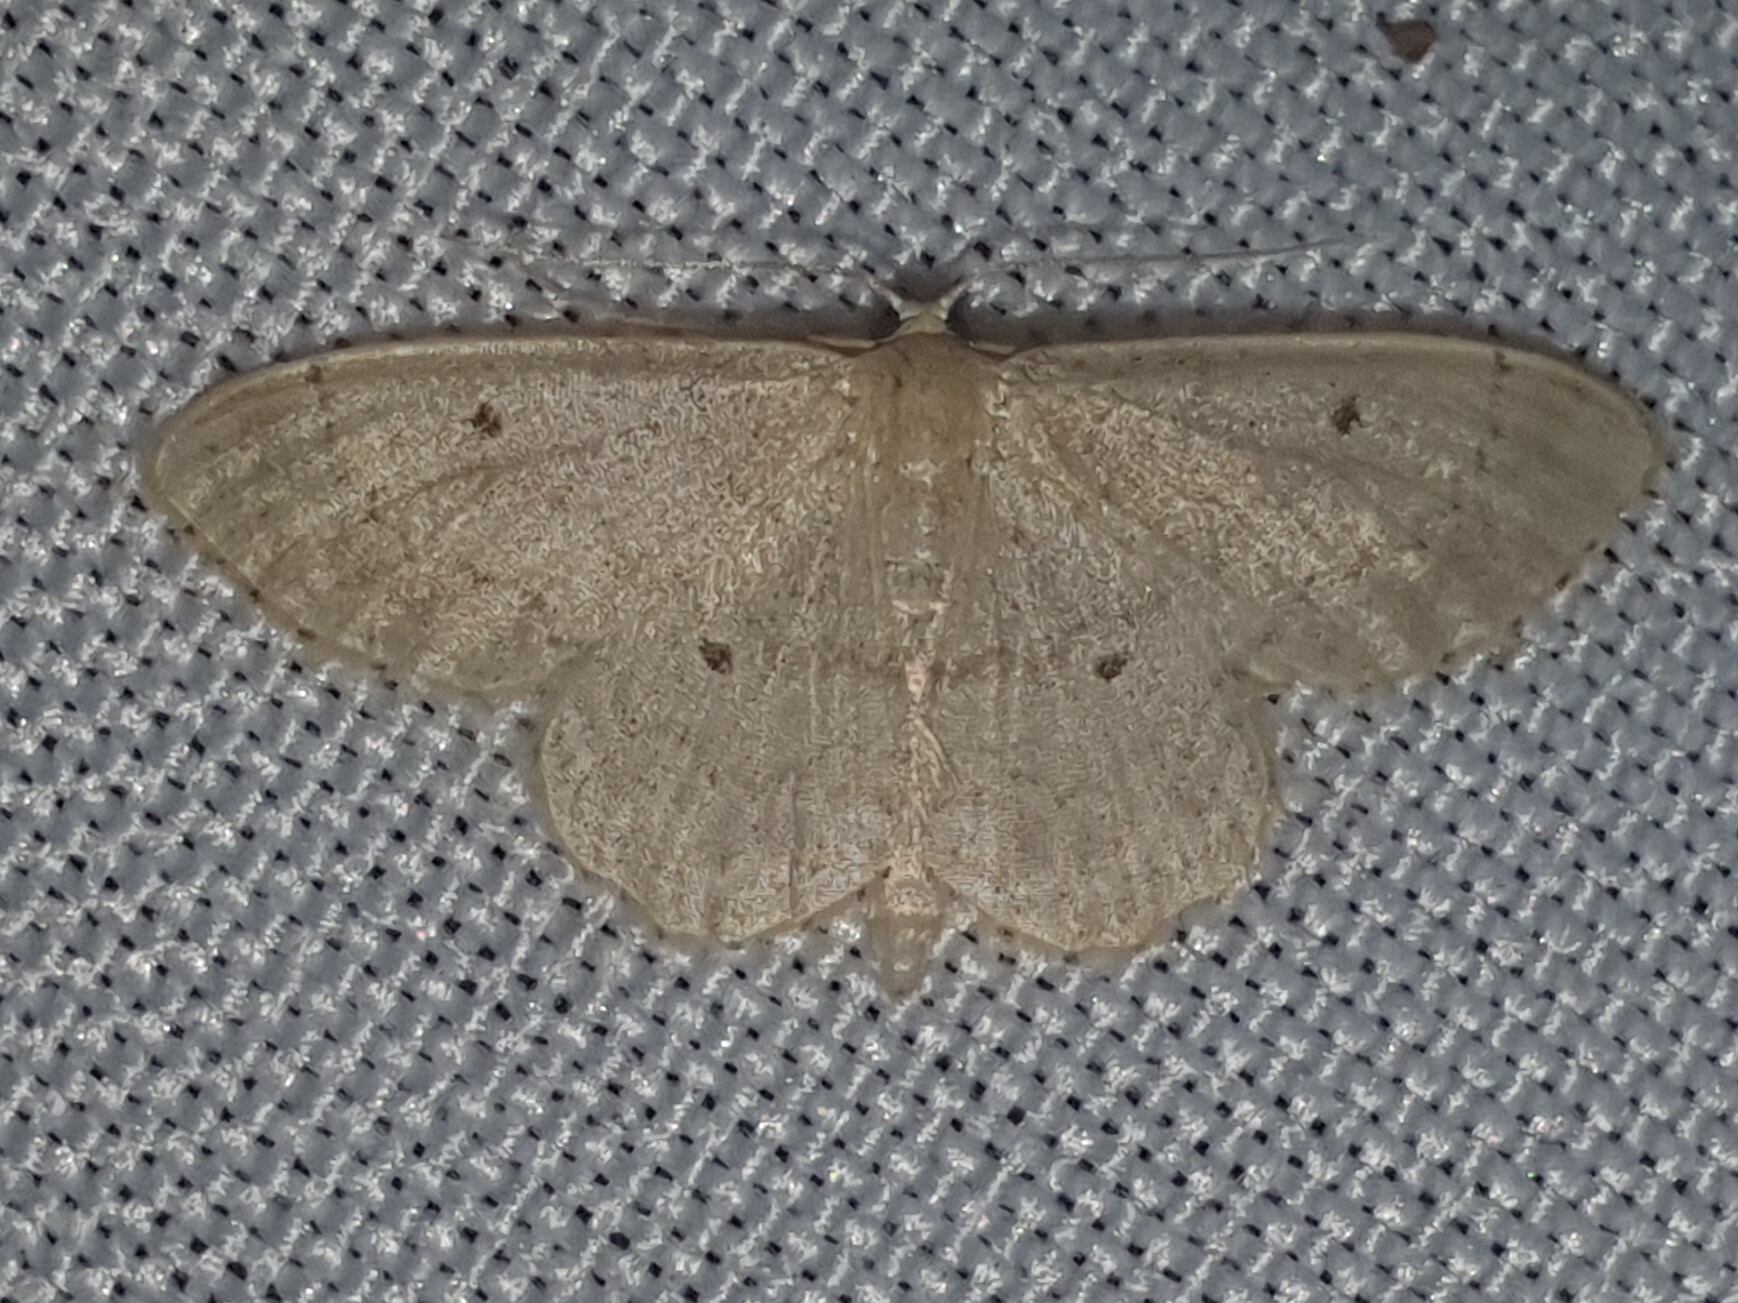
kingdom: Animalia
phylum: Arthropoda
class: Insecta
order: Lepidoptera
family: Geometridae
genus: Idaea
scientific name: Idaea biselata
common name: Small fan-footed wave
